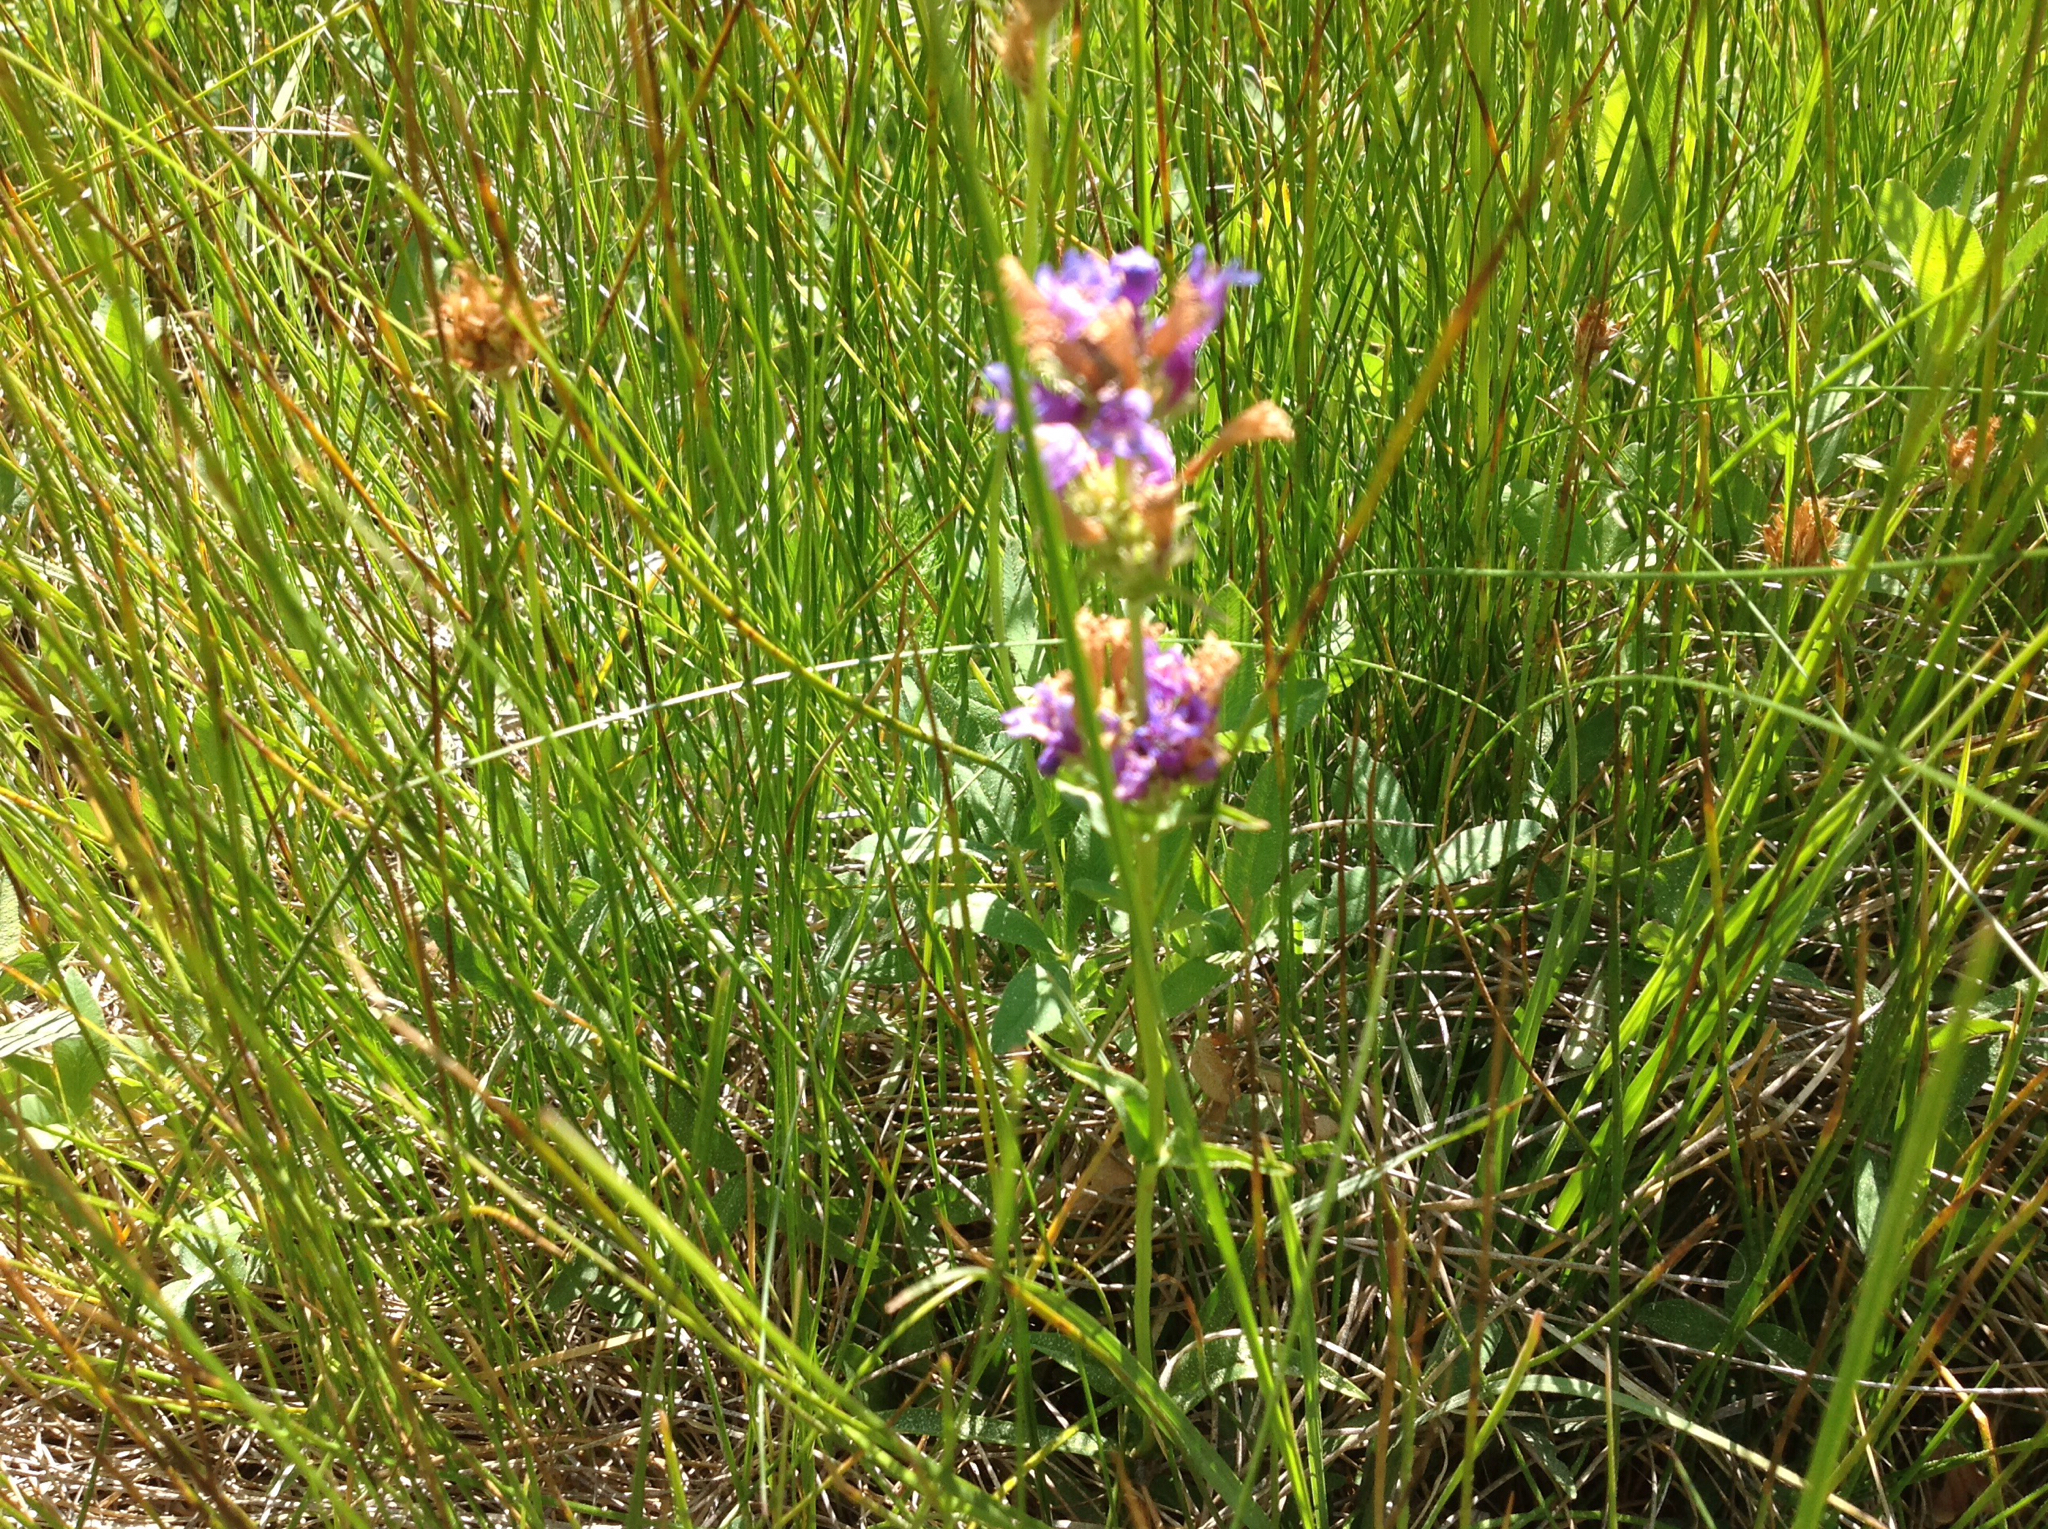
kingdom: Plantae
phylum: Tracheophyta
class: Magnoliopsida
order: Lamiales
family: Plantaginaceae
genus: Penstemon
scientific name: Penstemon rydbergii
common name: Rydberg's beardtongue
